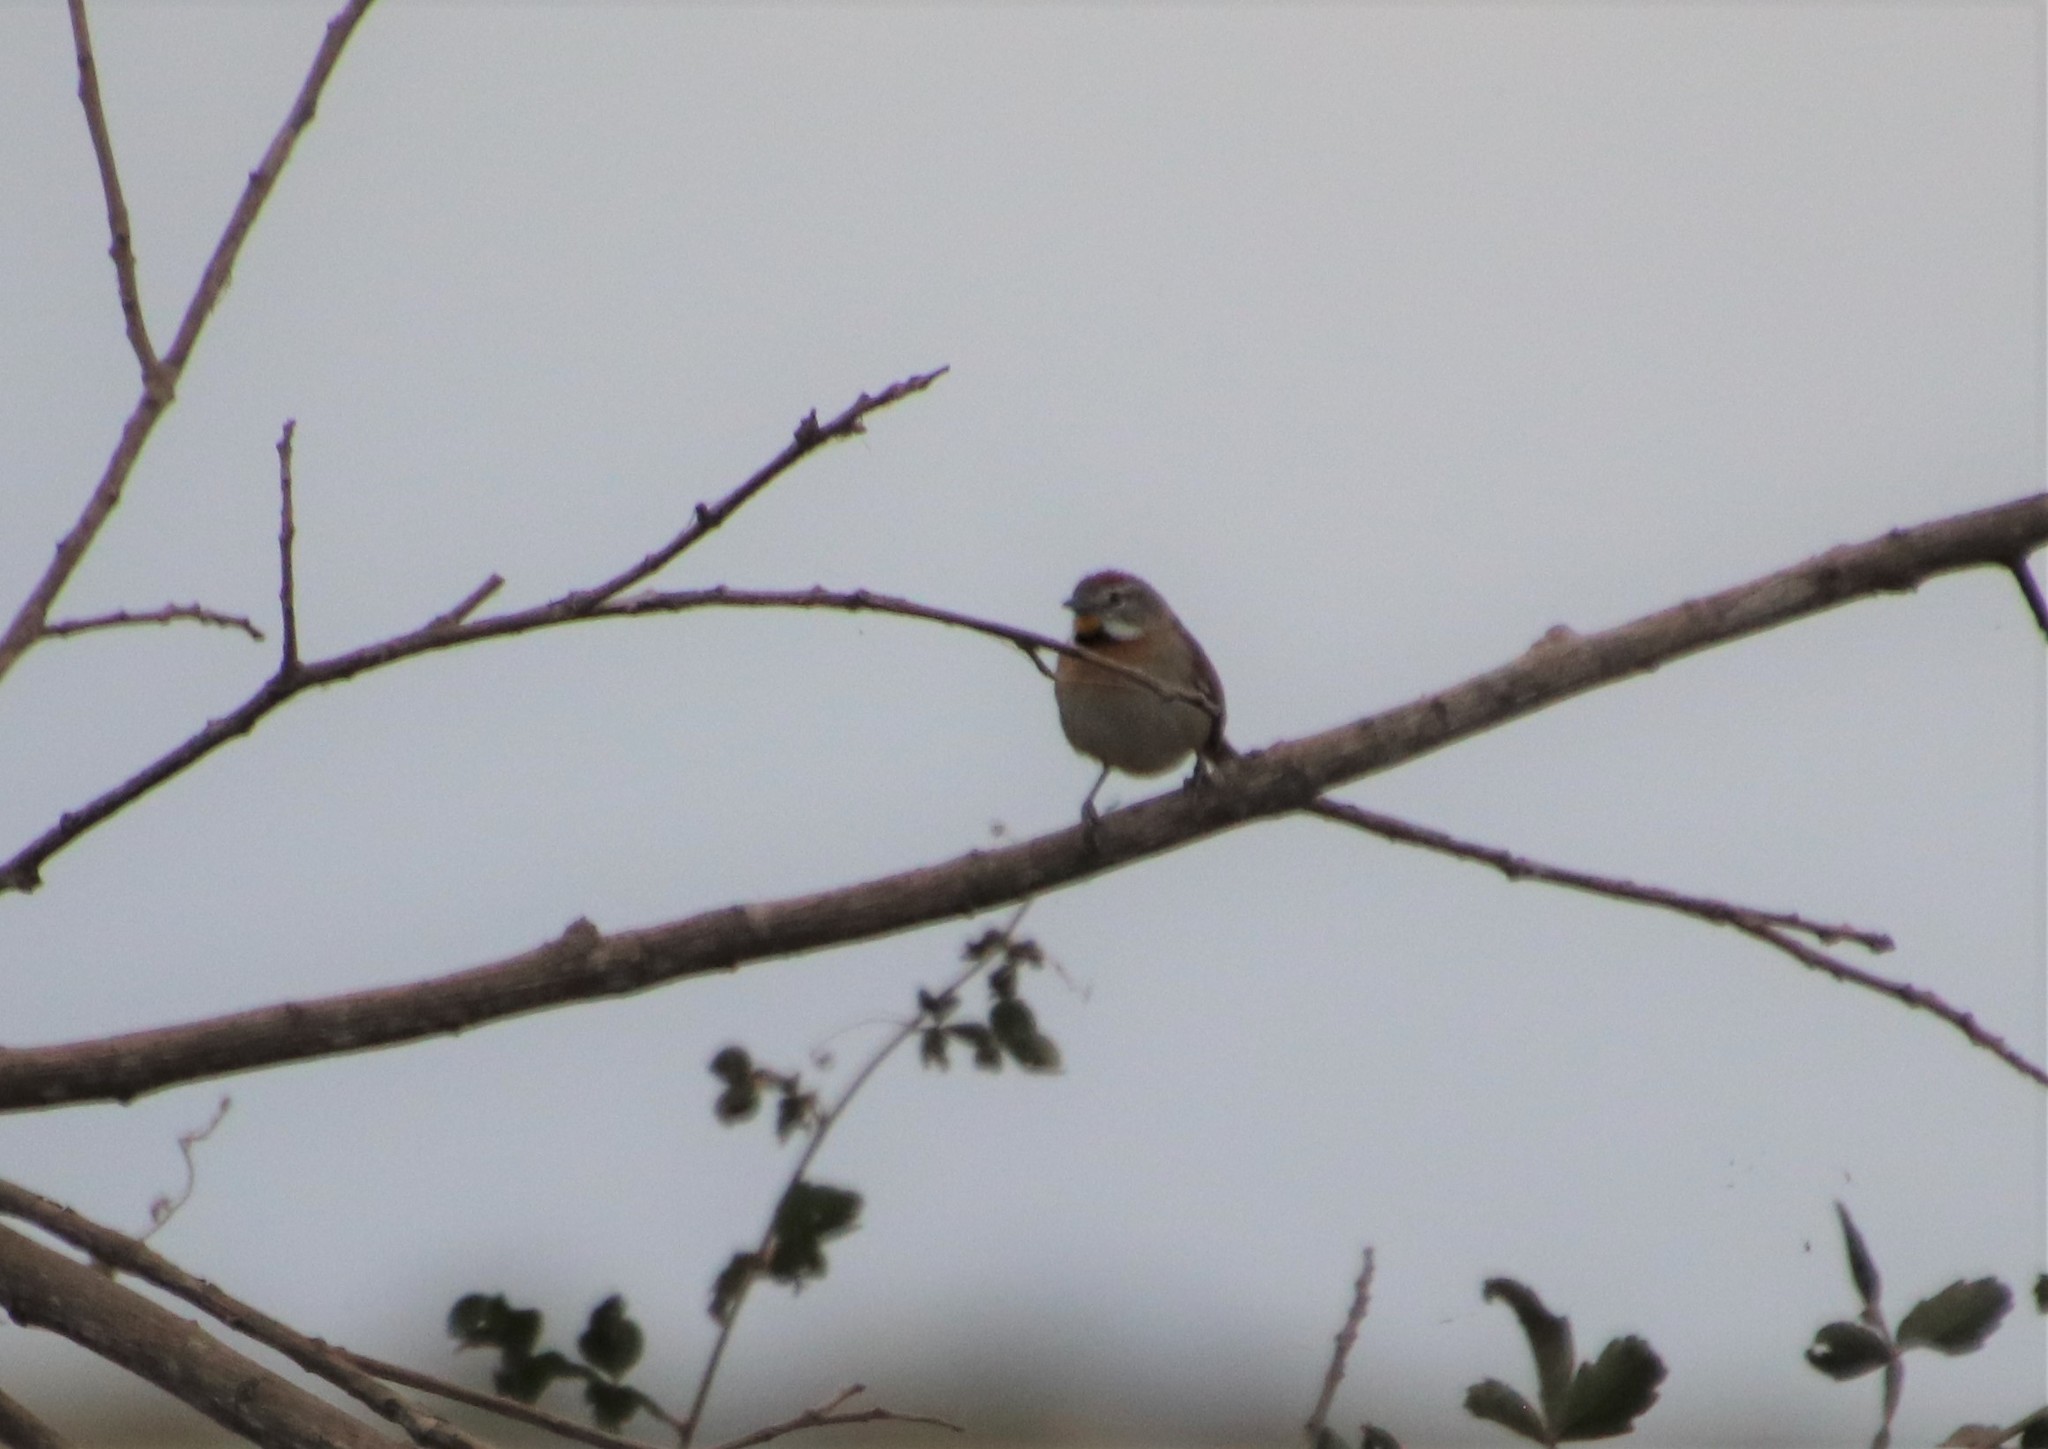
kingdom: Animalia
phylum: Chordata
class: Aves
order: Passeriformes
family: Furnariidae
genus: Schoeniophylax
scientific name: Schoeniophylax phryganophilus
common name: Chotoy spinetail
